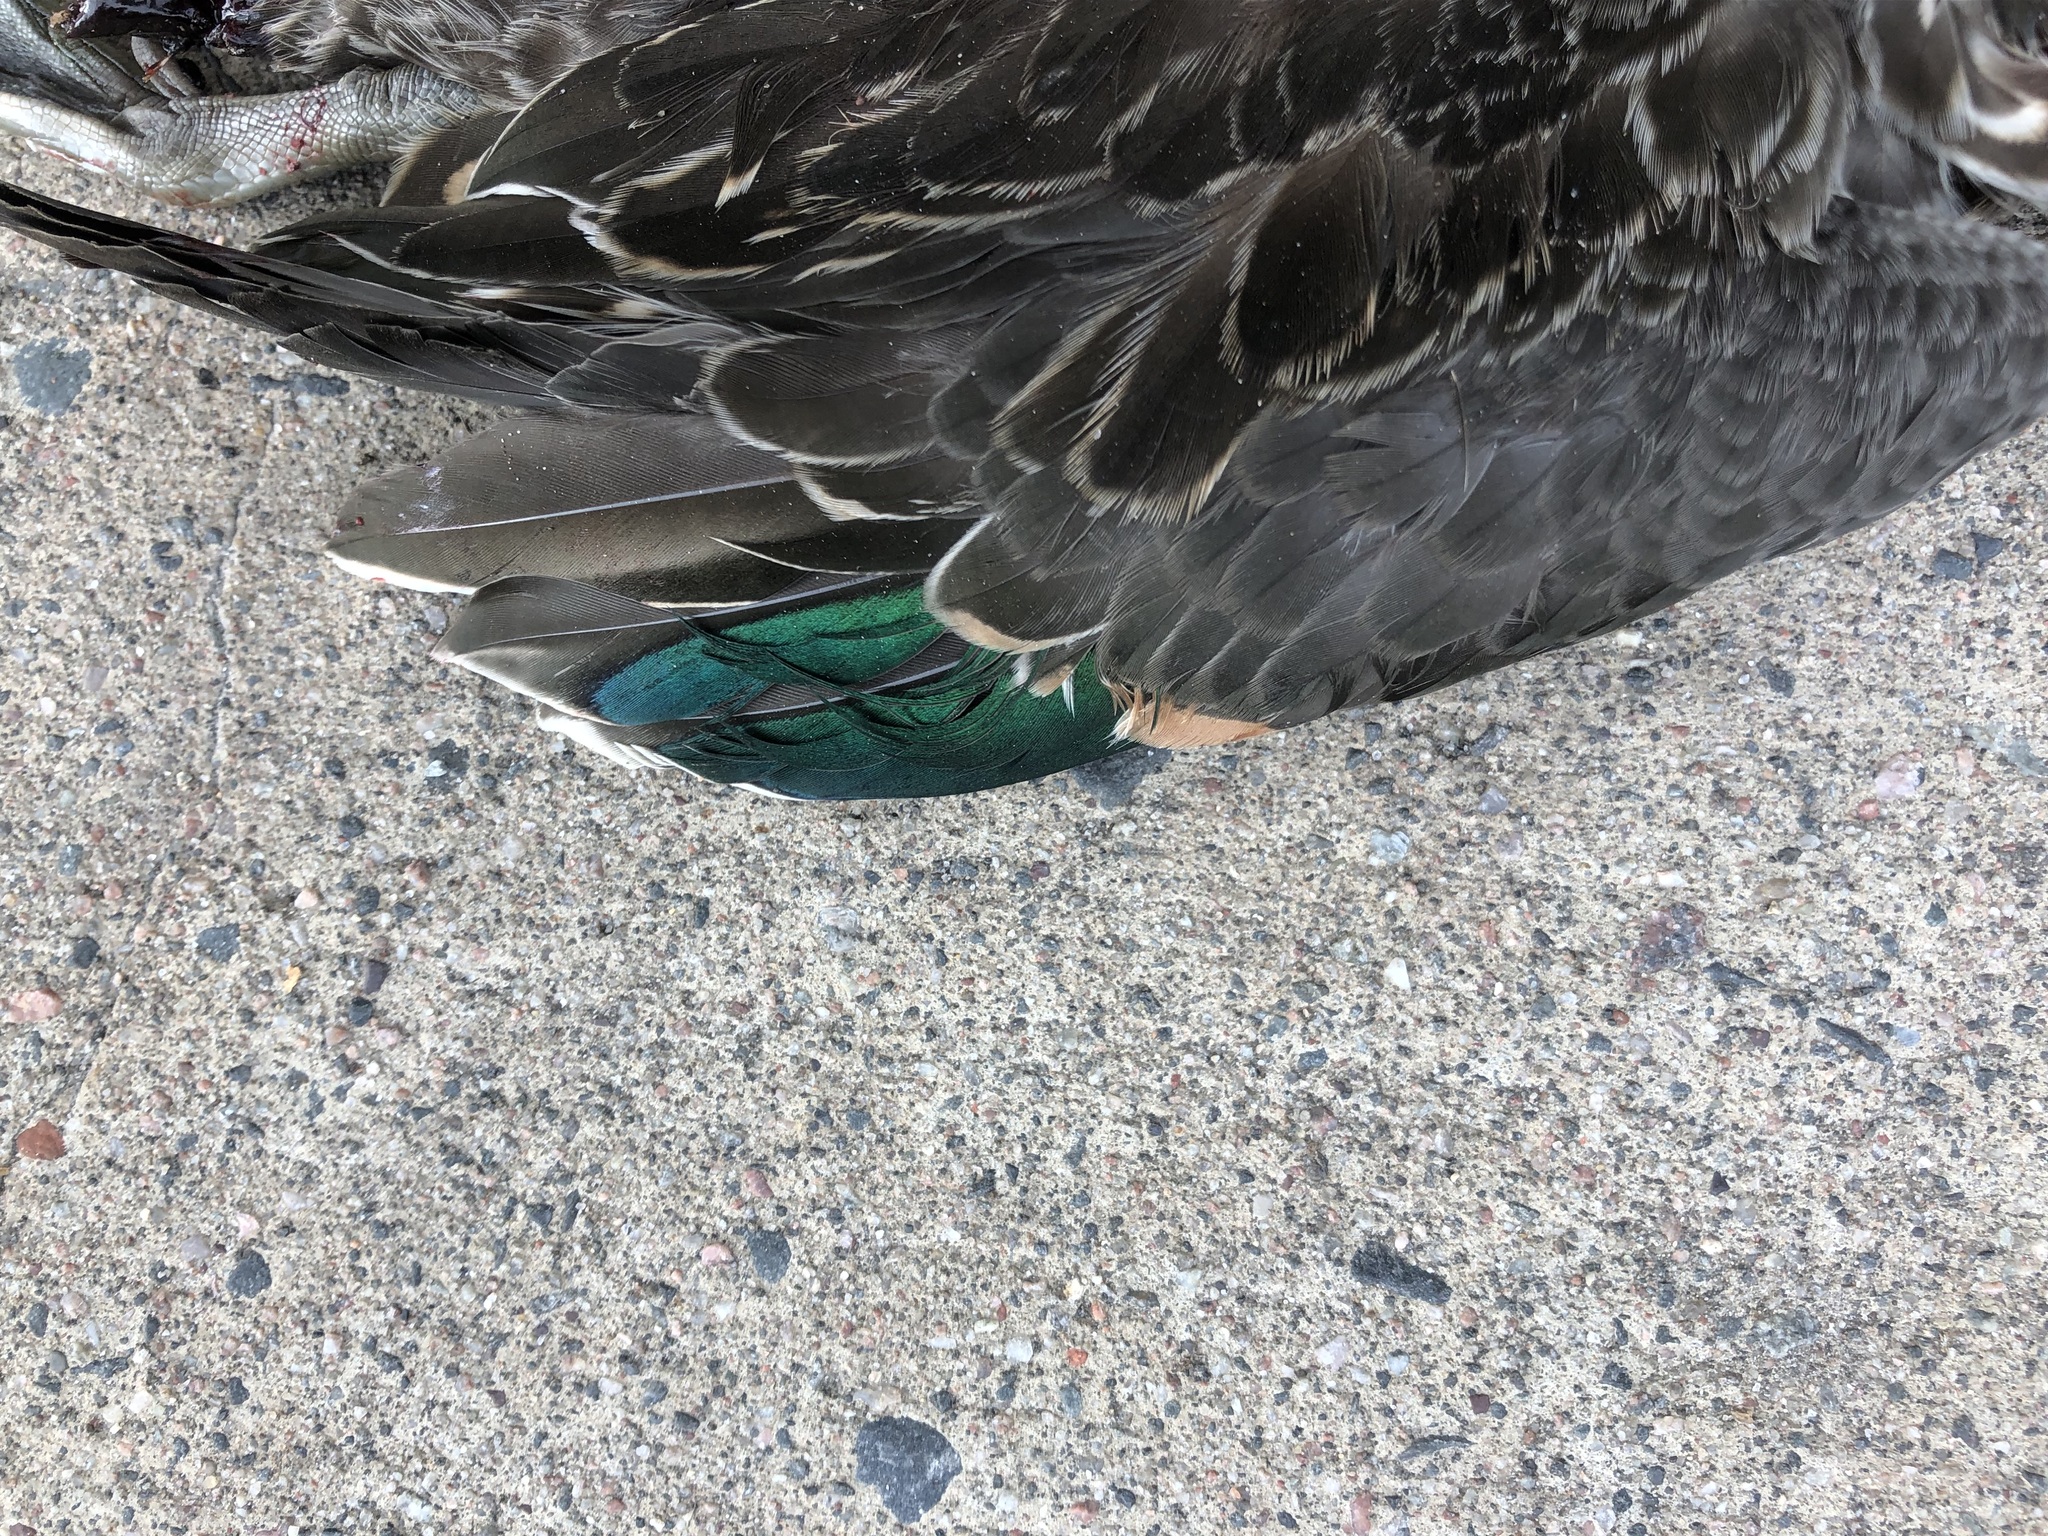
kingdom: Animalia
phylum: Chordata
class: Aves
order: Anseriformes
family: Anatidae
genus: Anas
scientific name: Anas crecca
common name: Eurasian teal
